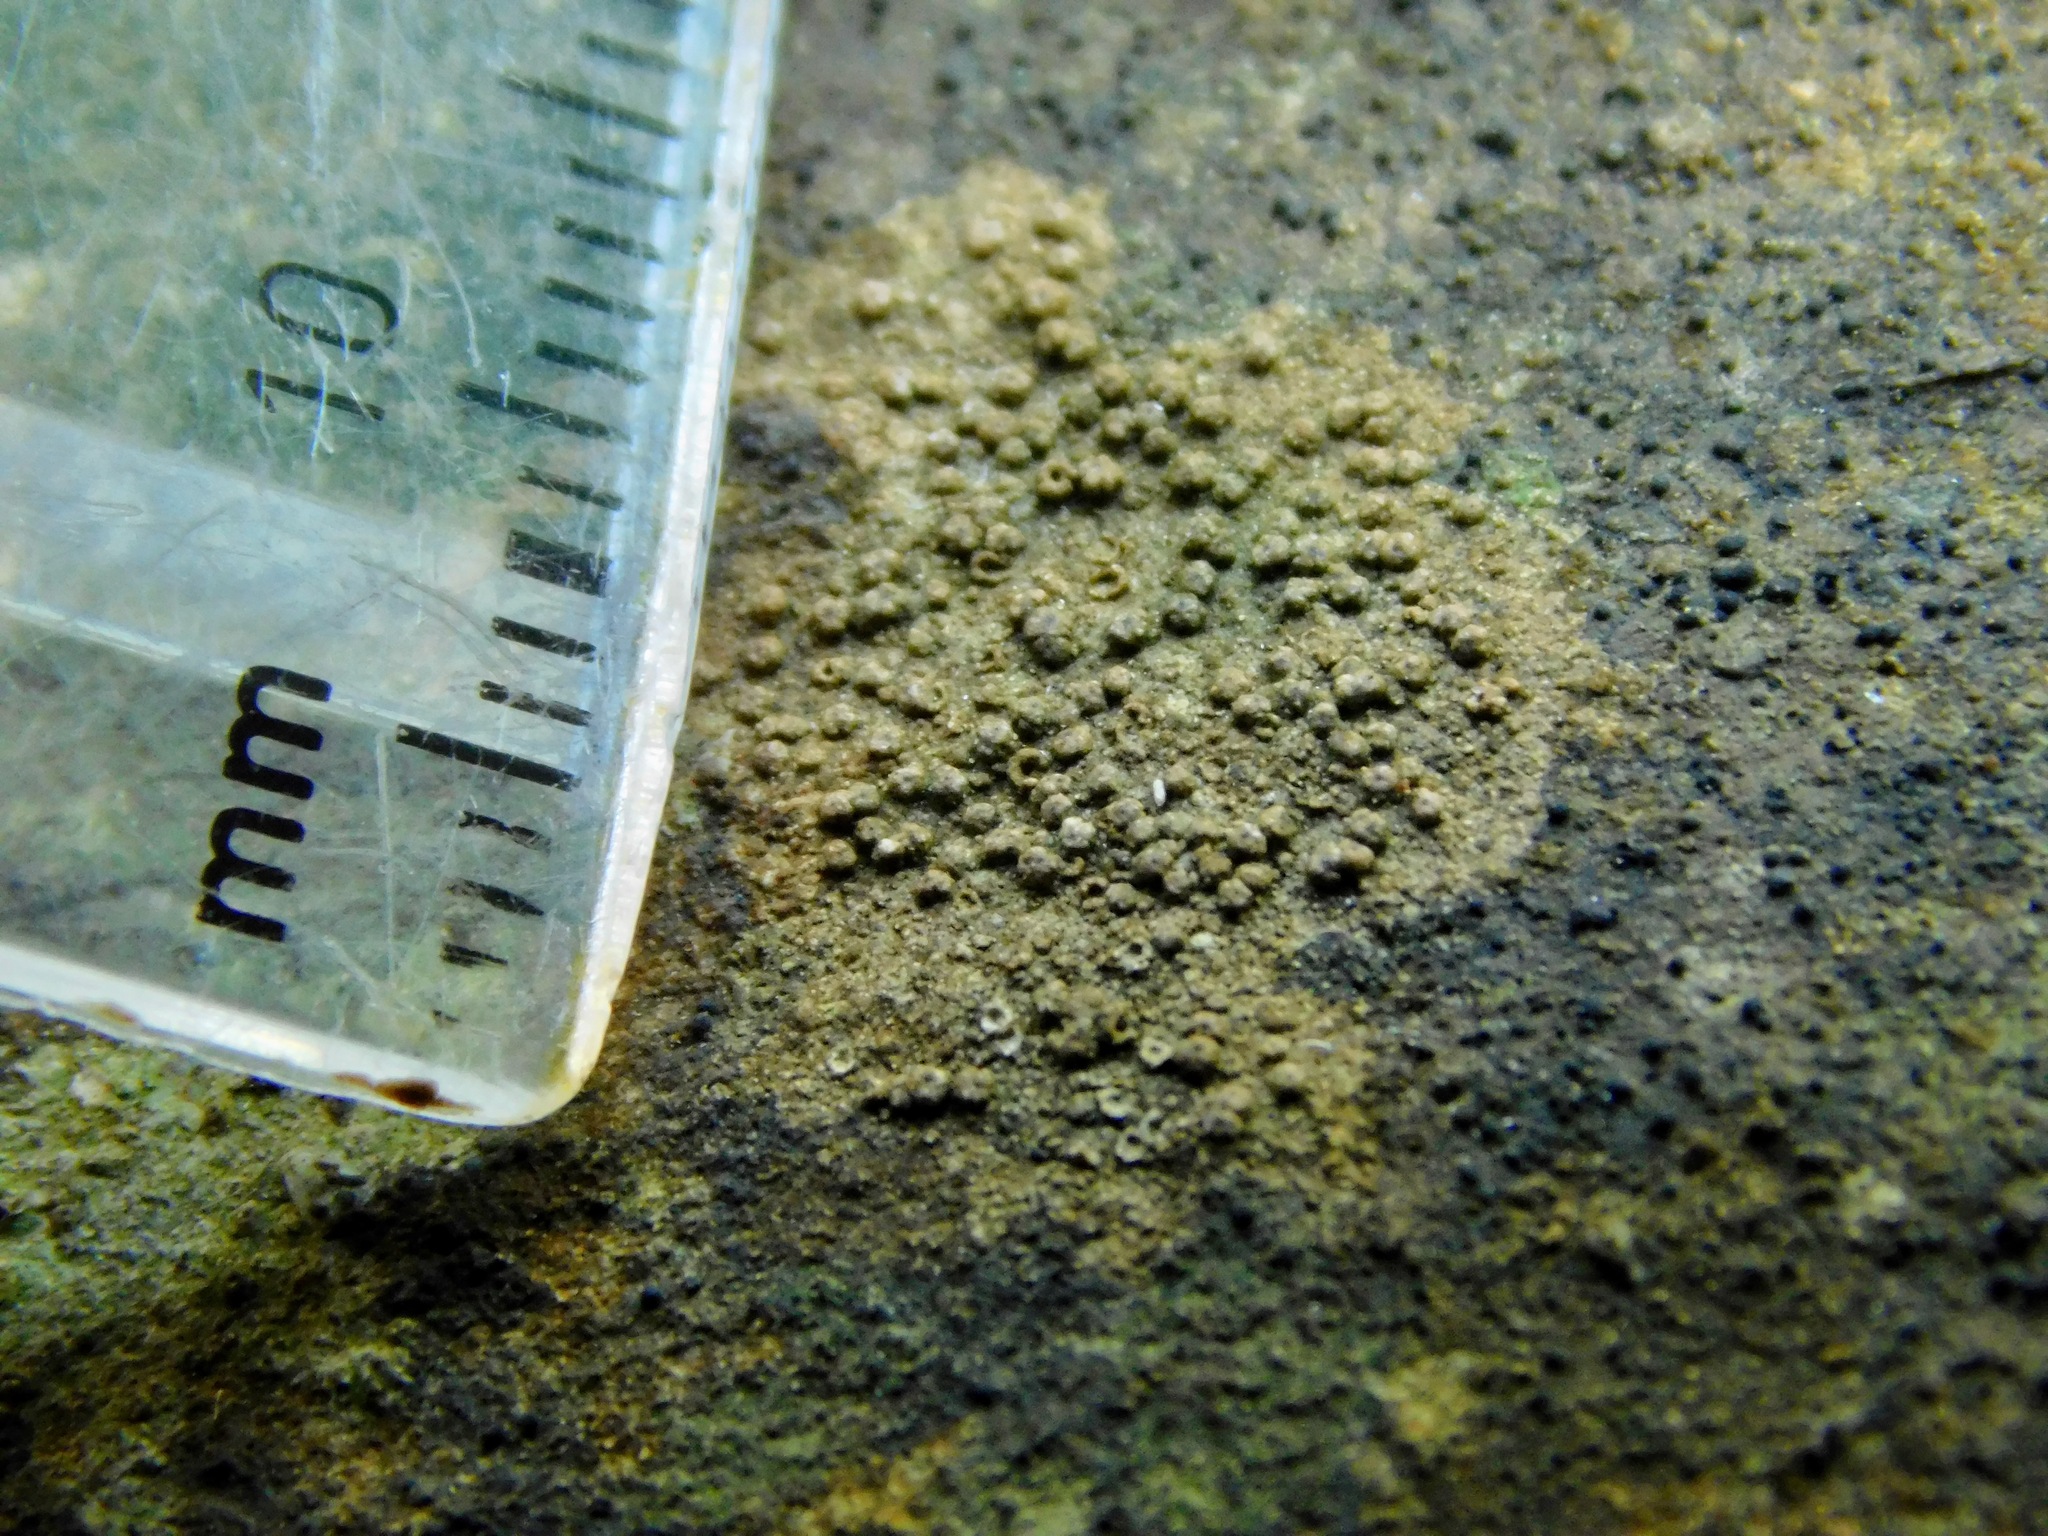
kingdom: Fungi
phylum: Ascomycota
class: Lecanoromycetes
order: Pertusariales
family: Pertusariaceae
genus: Porina
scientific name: Porina heterospora
